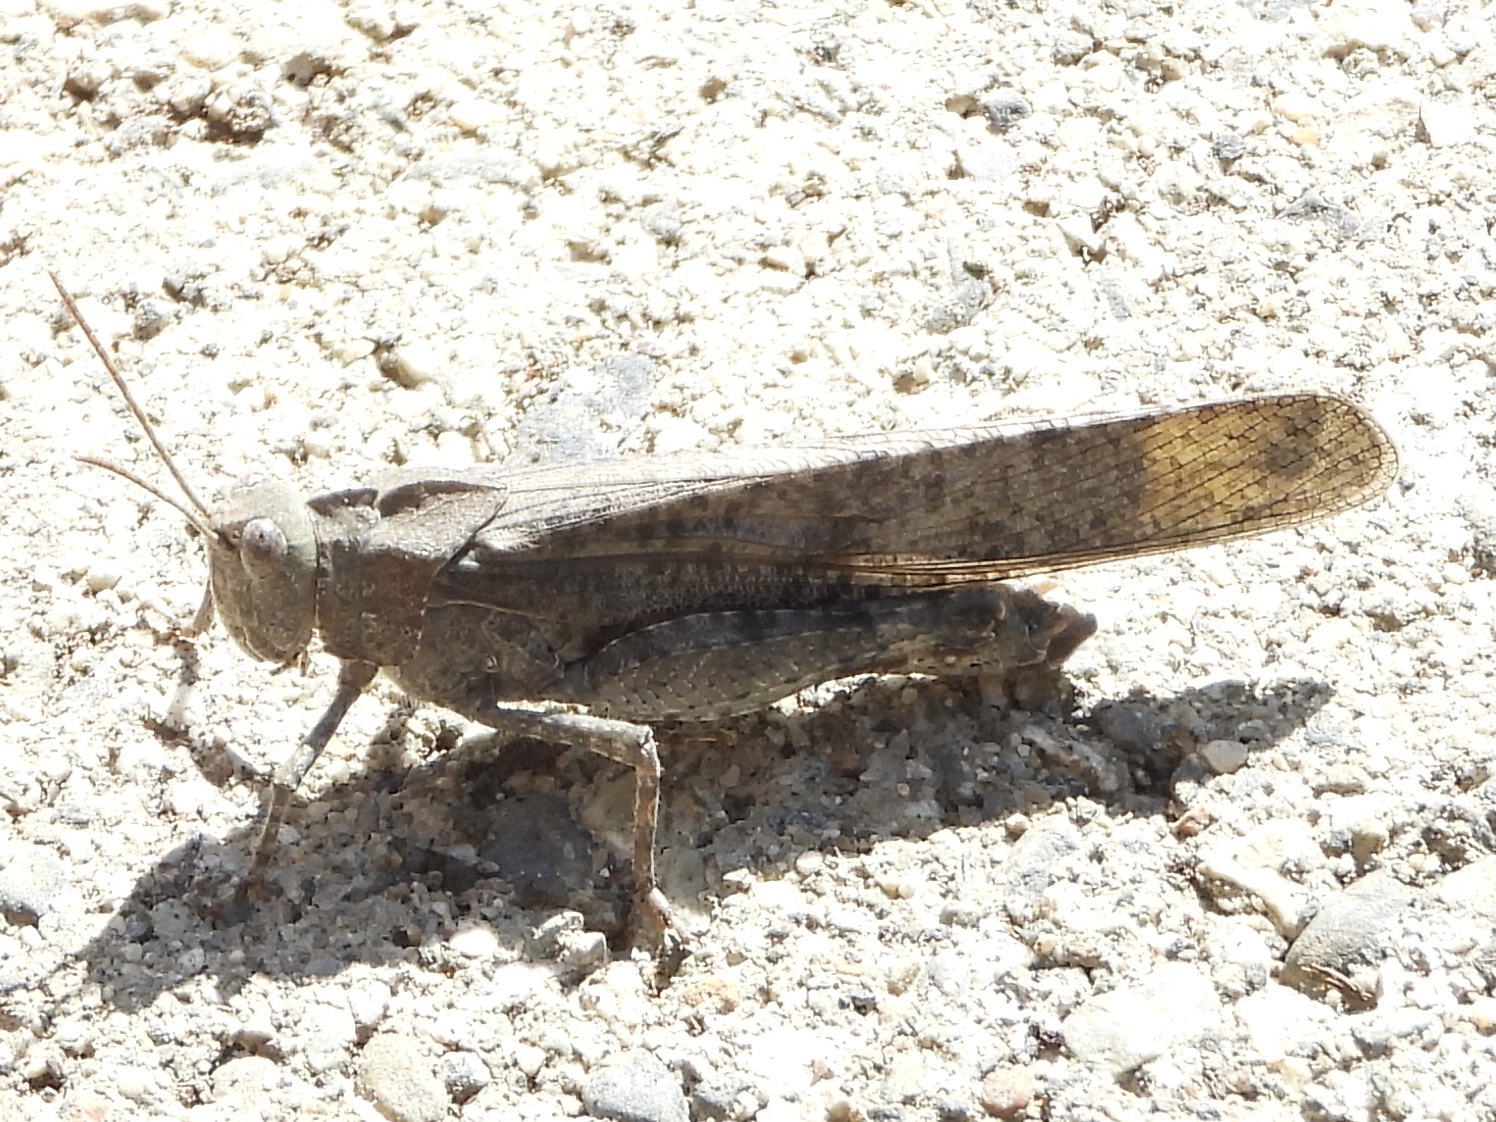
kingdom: Animalia
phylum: Arthropoda
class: Insecta
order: Orthoptera
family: Acrididae
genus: Dissosteira
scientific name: Dissosteira carolina
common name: Carolina grasshopper
